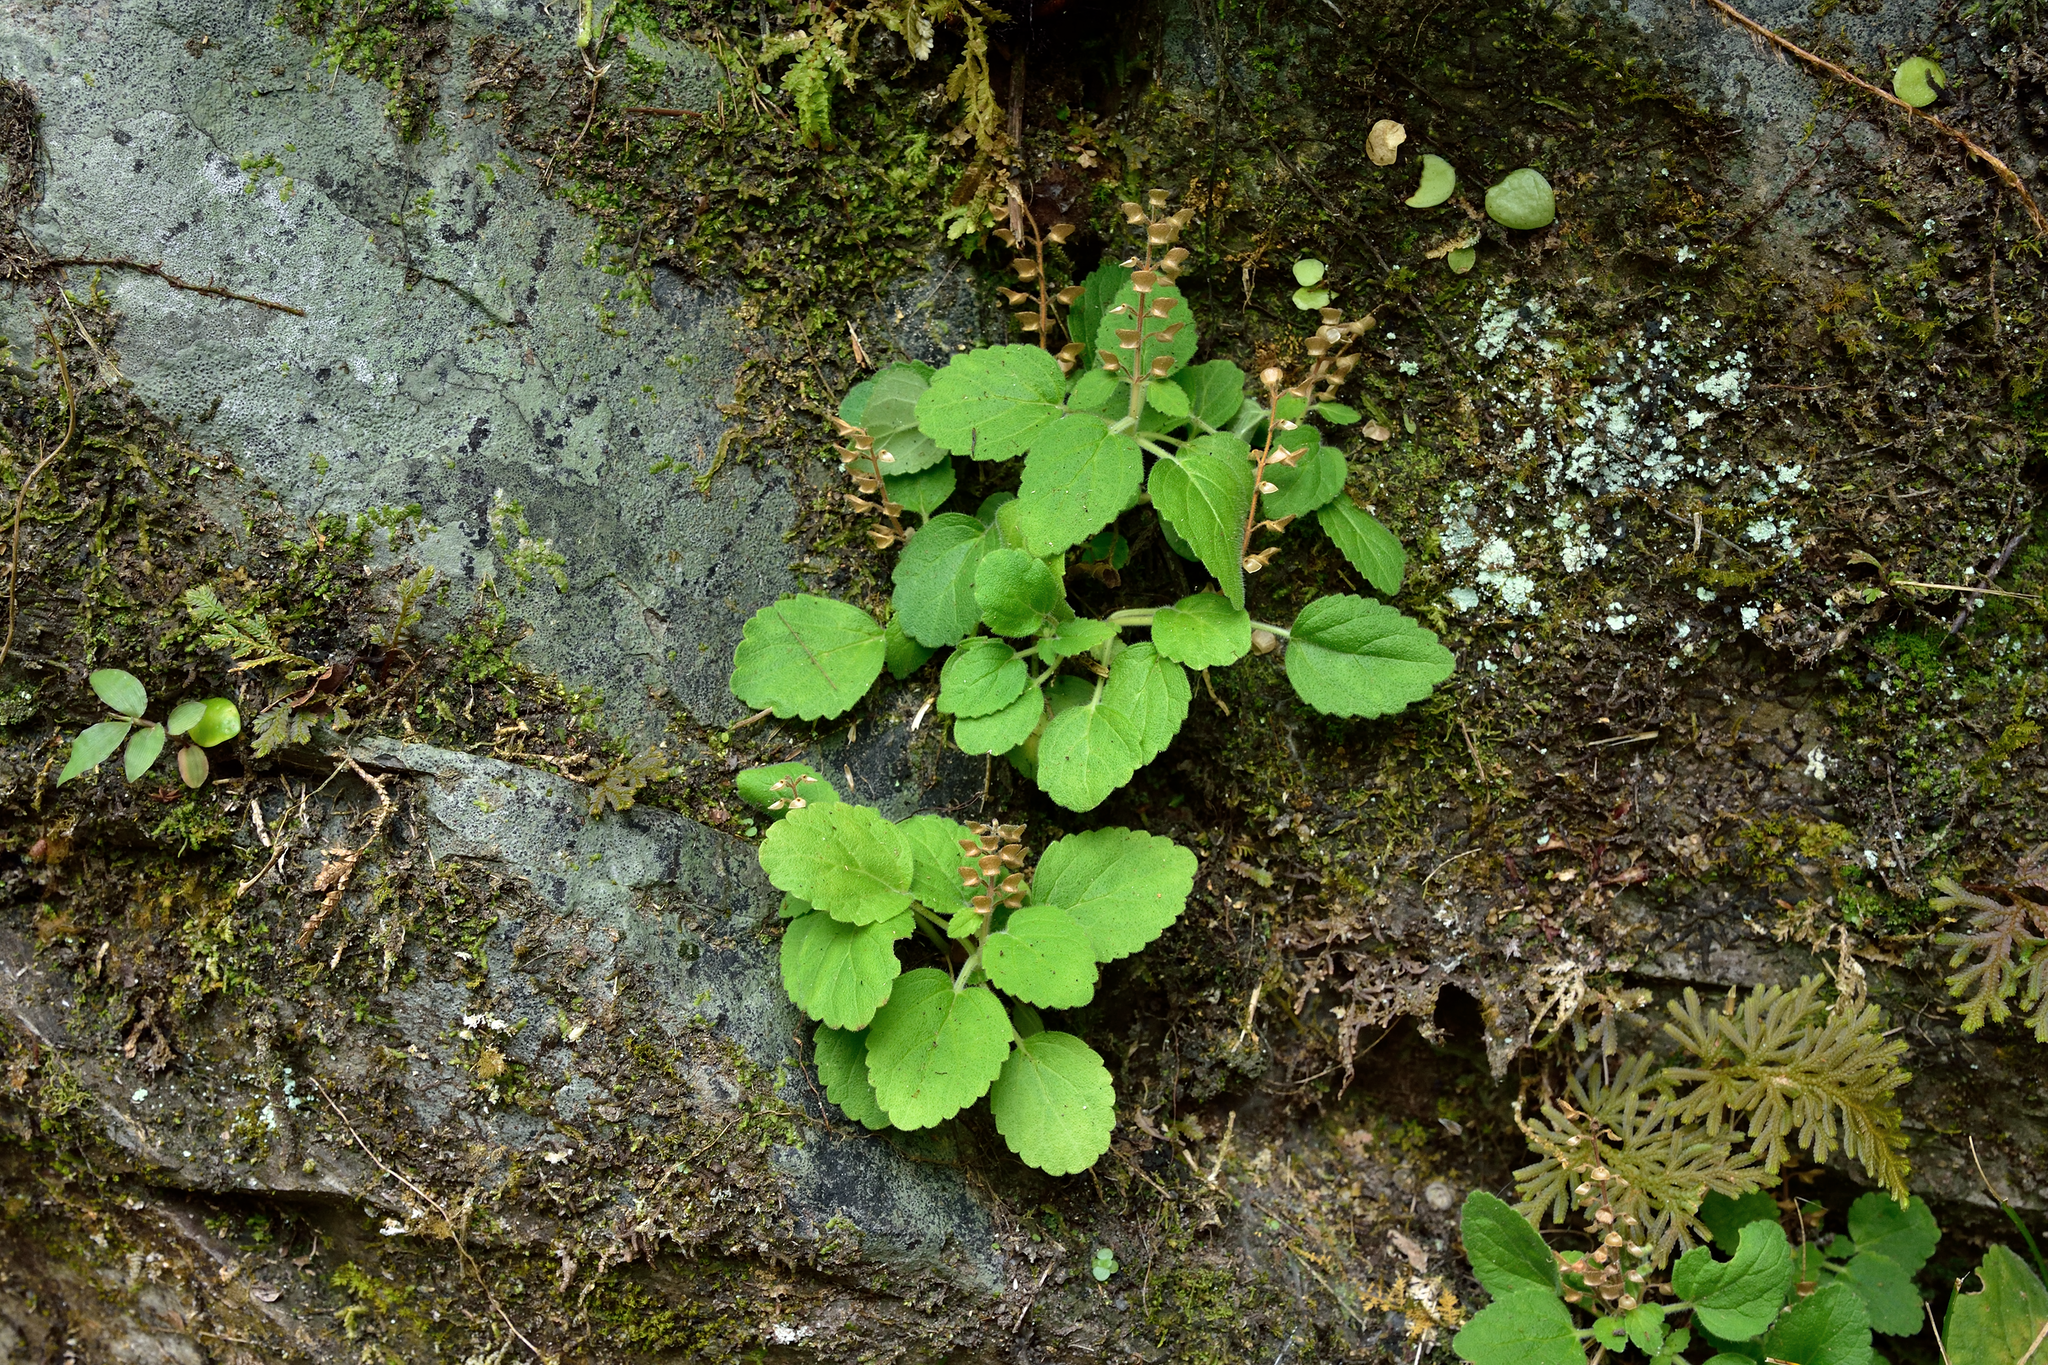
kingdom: Plantae
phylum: Tracheophyta
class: Magnoliopsida
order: Lamiales
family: Lamiaceae
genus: Scutellaria
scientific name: Scutellaria indica
